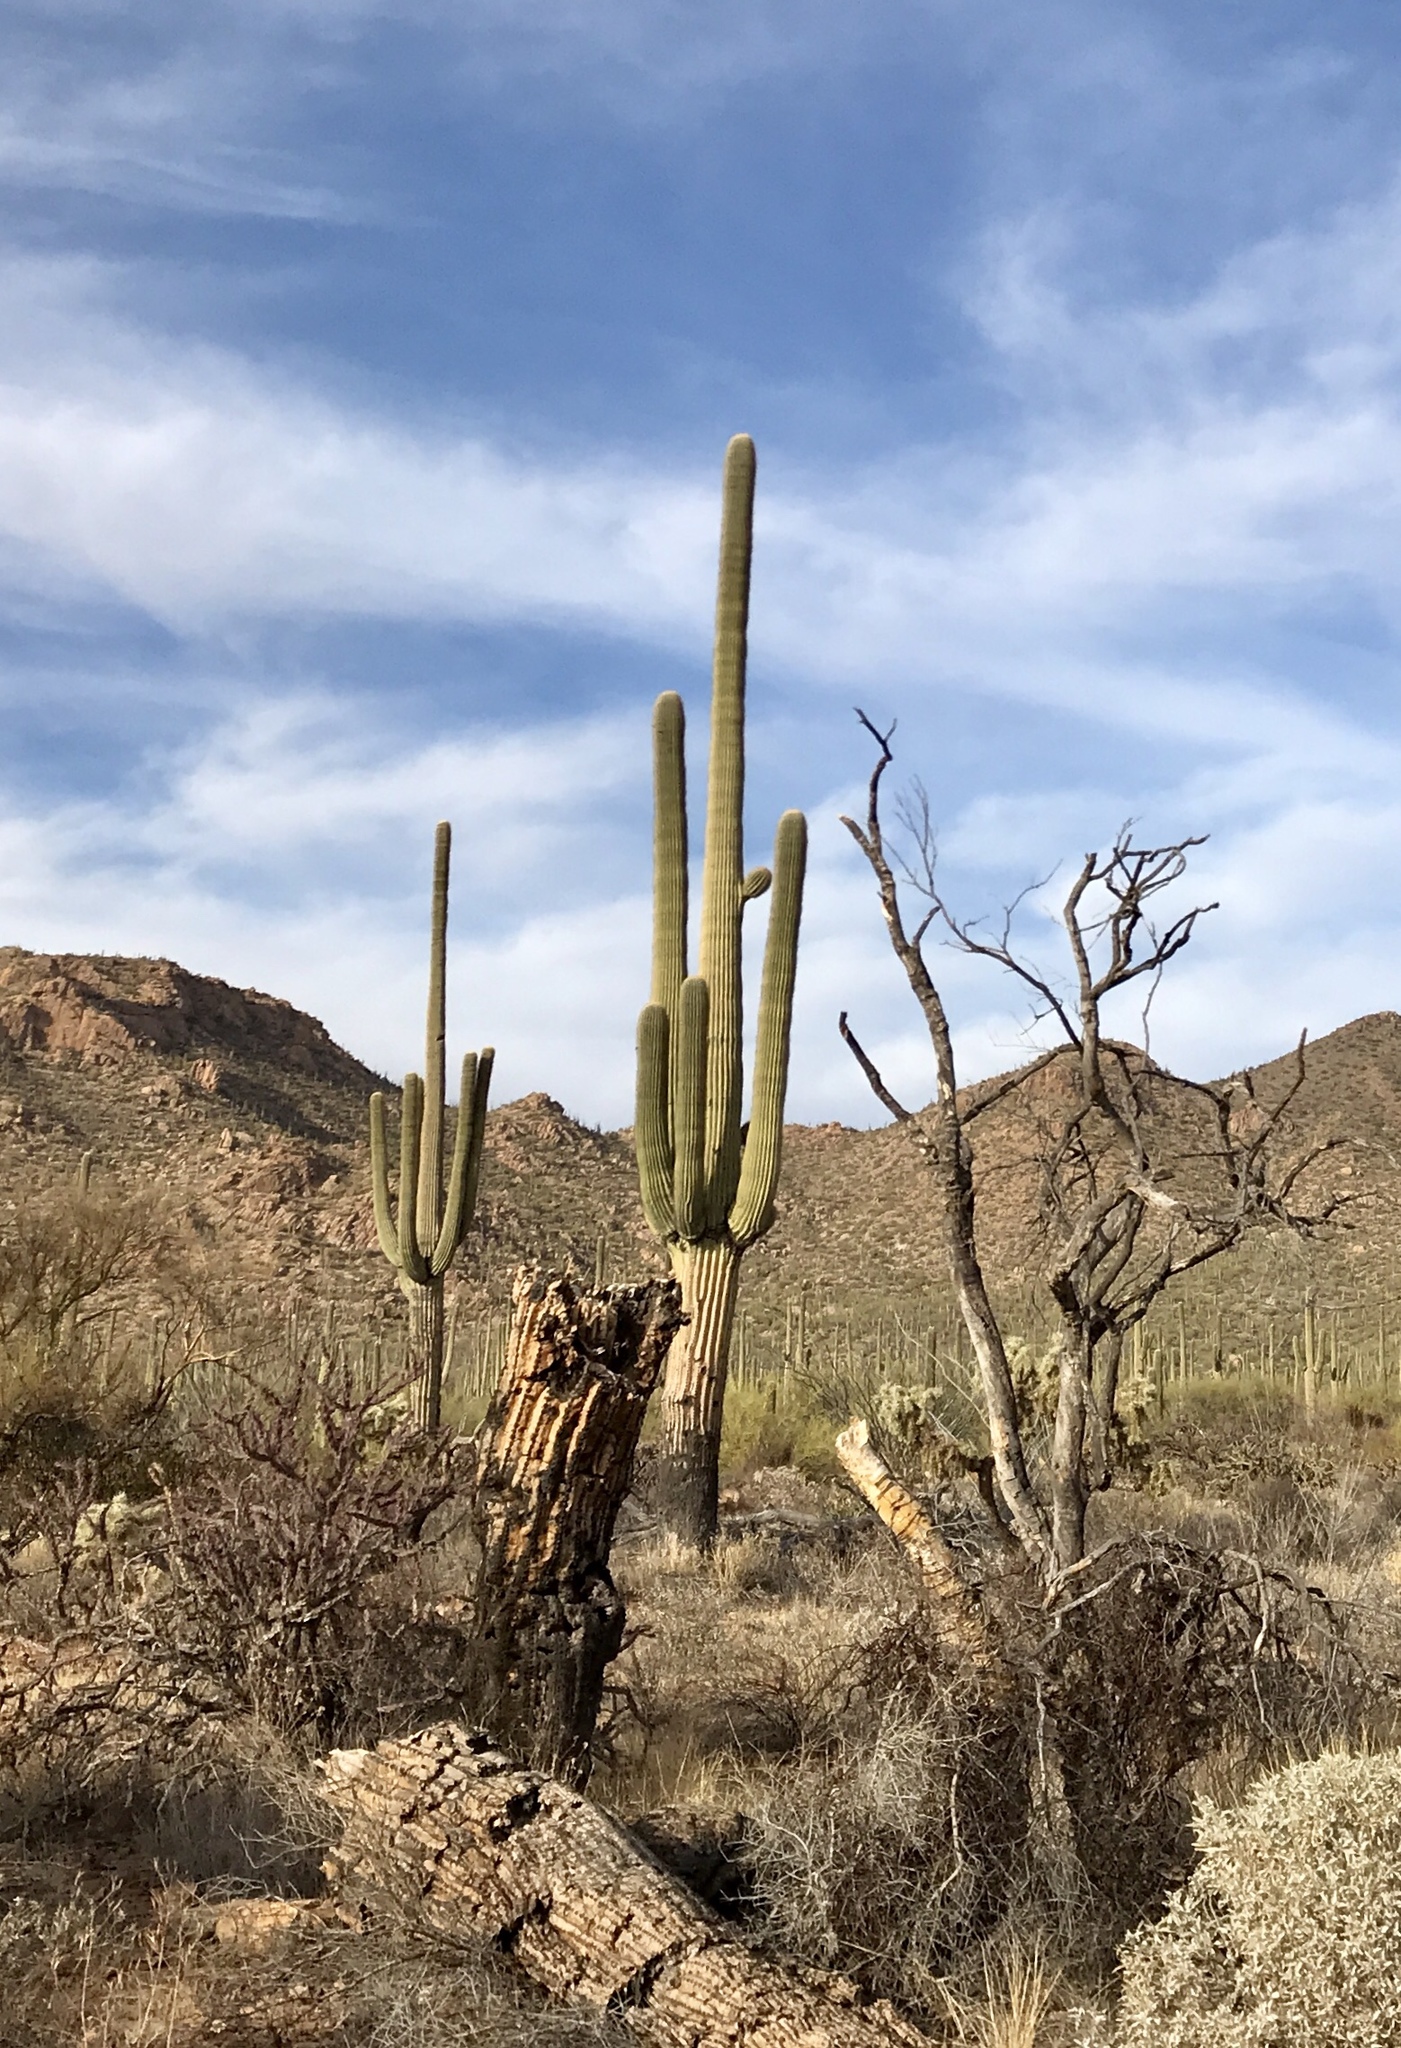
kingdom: Plantae
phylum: Tracheophyta
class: Magnoliopsida
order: Caryophyllales
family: Cactaceae
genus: Carnegiea
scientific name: Carnegiea gigantea
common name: Saguaro
